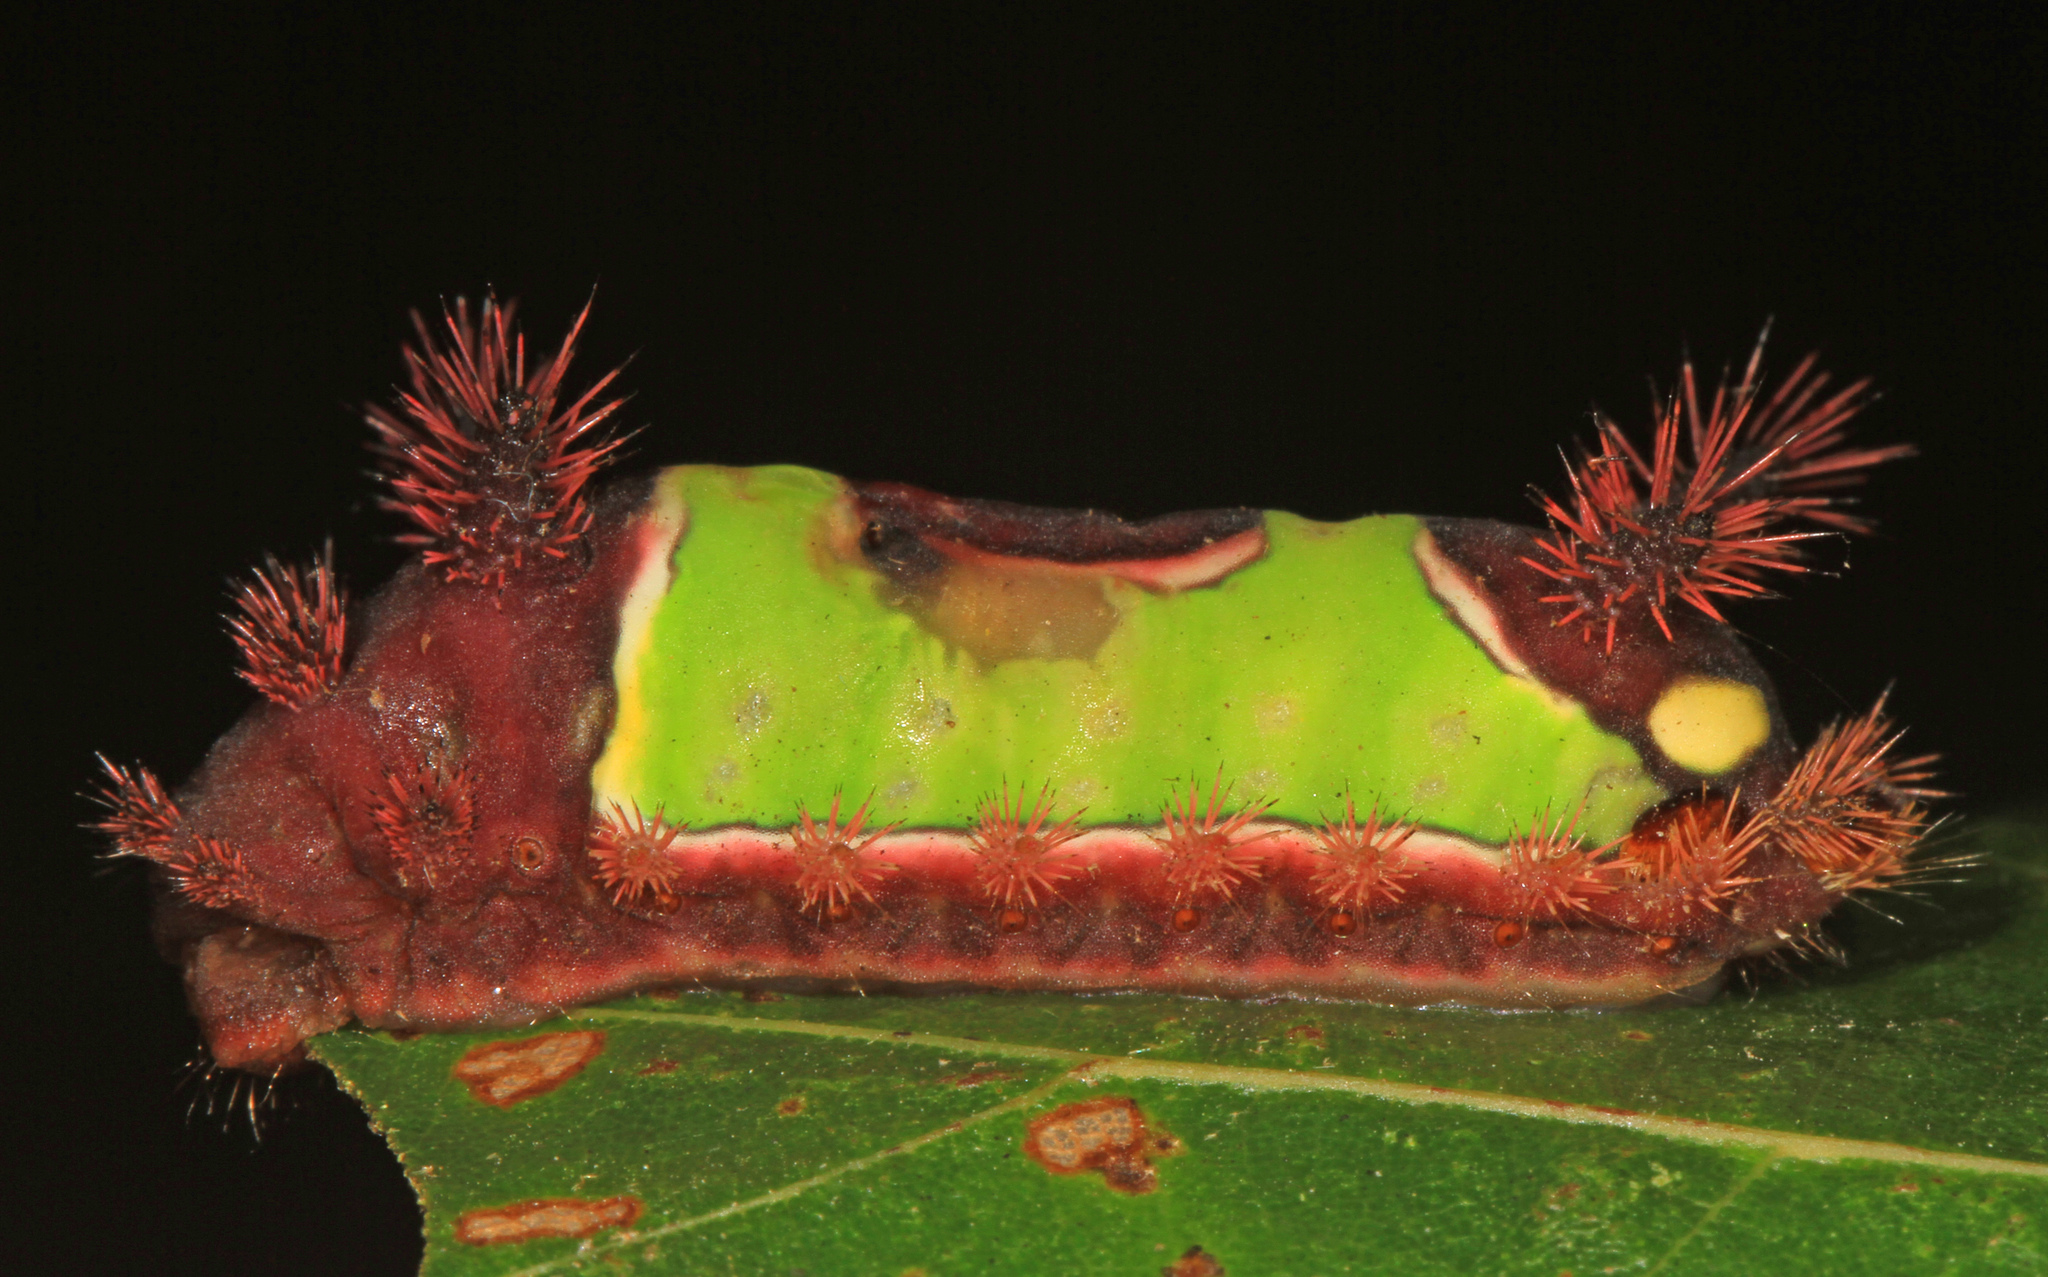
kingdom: Animalia
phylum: Arthropoda
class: Insecta
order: Lepidoptera
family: Limacodidae
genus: Acharia
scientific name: Acharia stimulea
